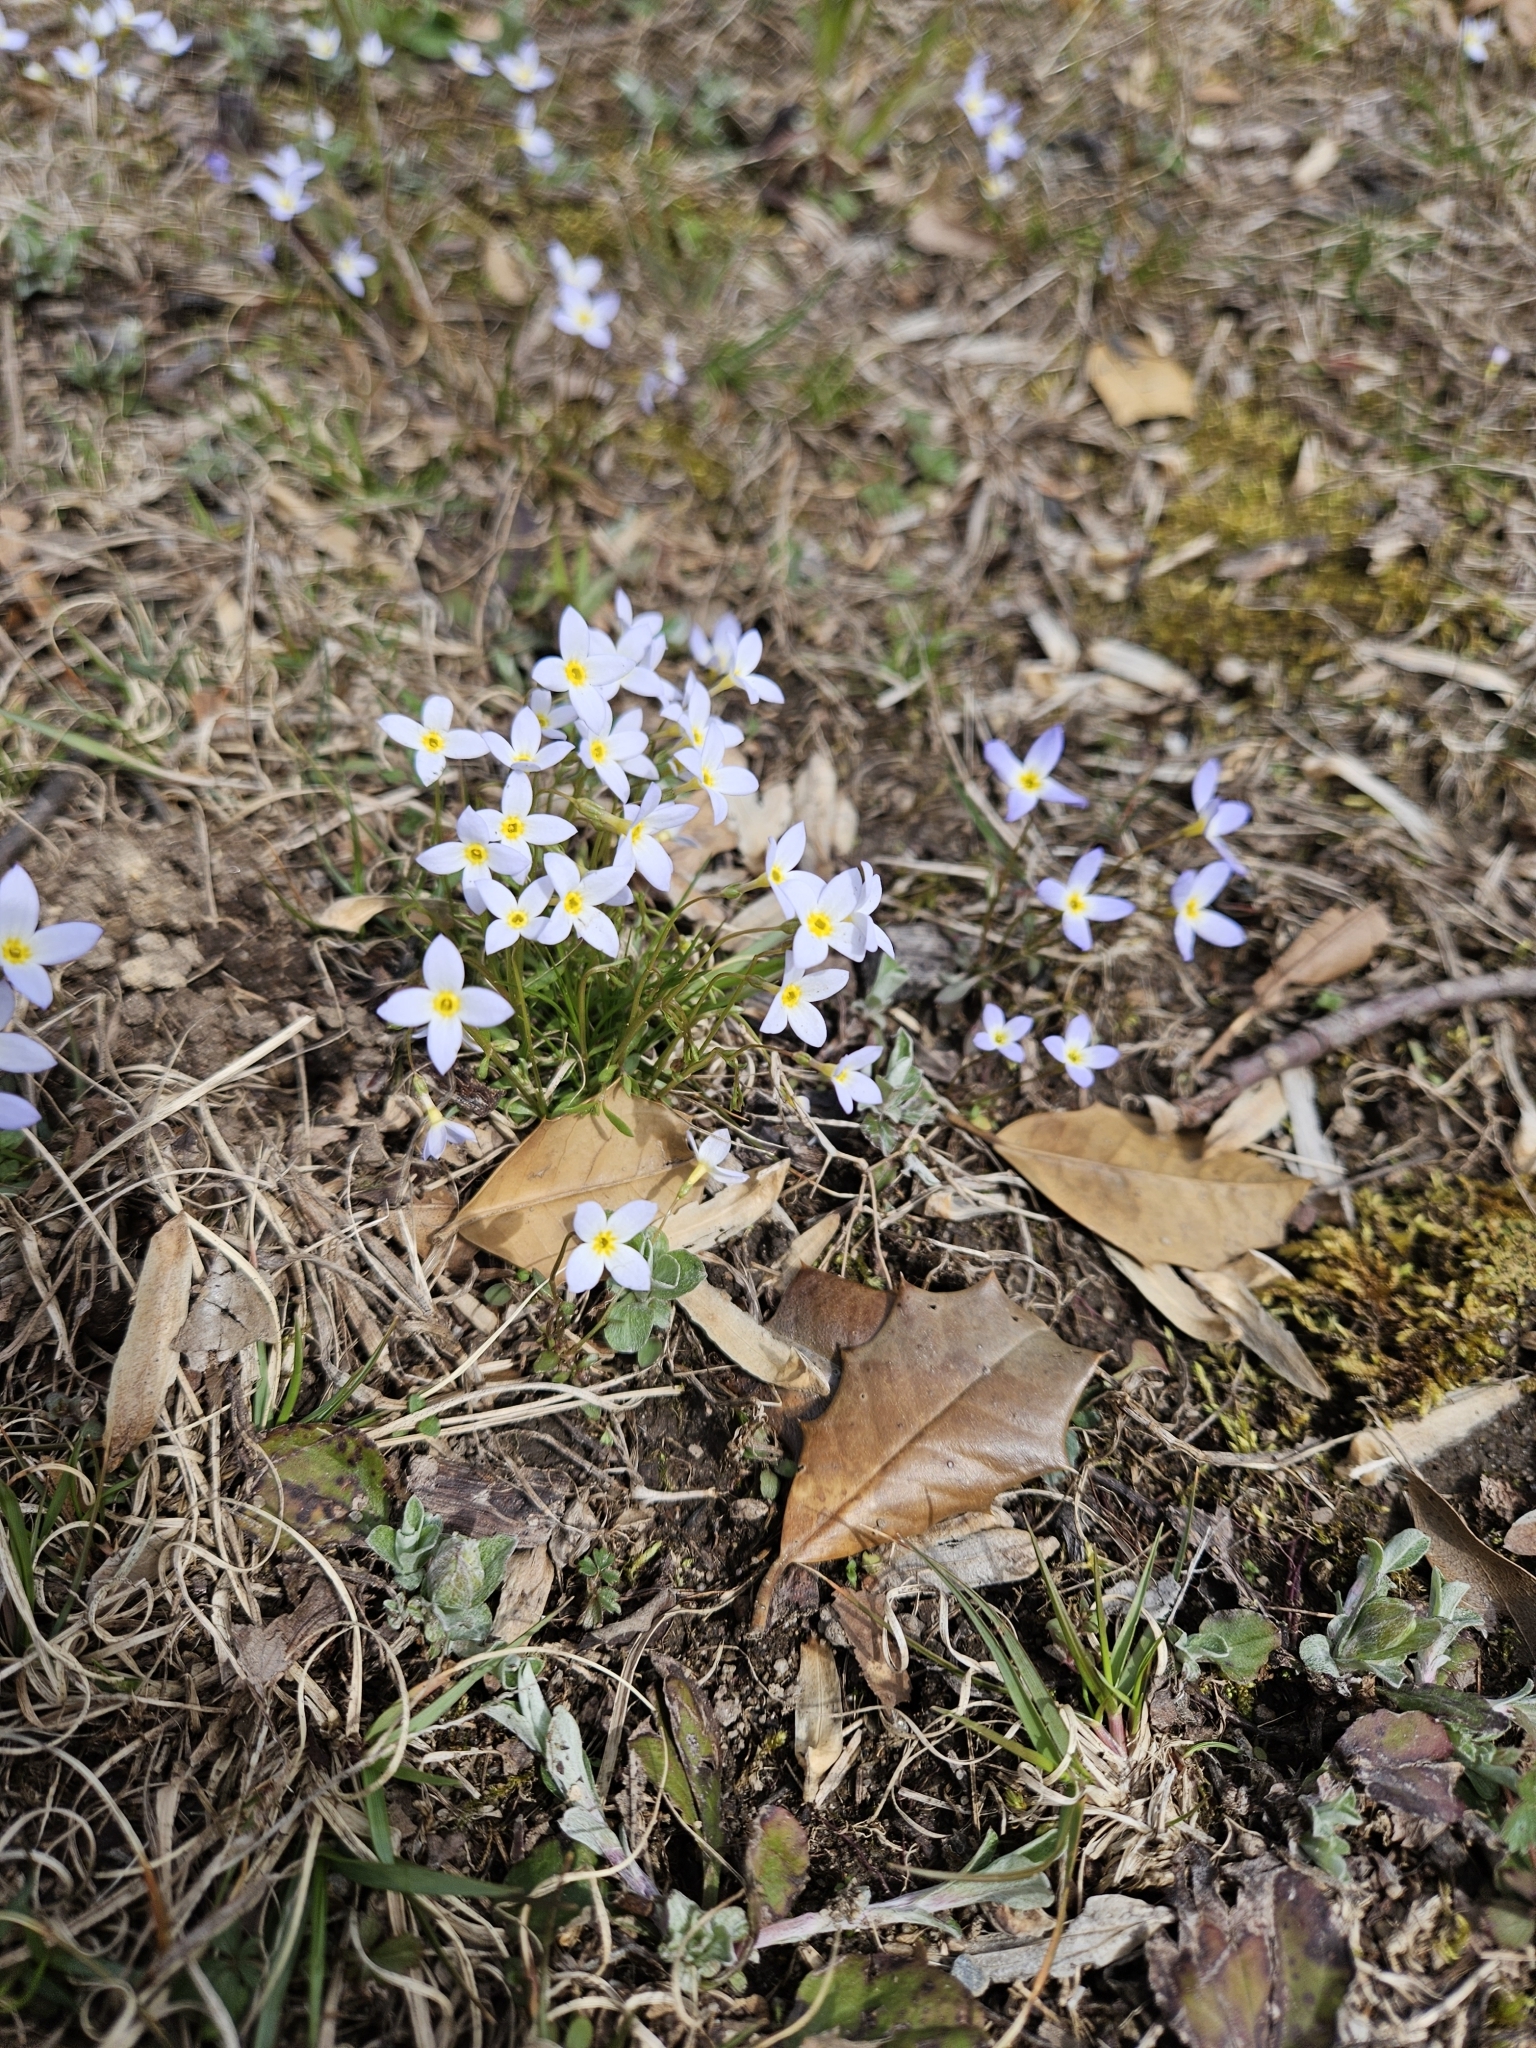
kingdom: Plantae
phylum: Tracheophyta
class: Magnoliopsida
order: Gentianales
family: Rubiaceae
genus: Houstonia
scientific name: Houstonia caerulea
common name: Bluets
